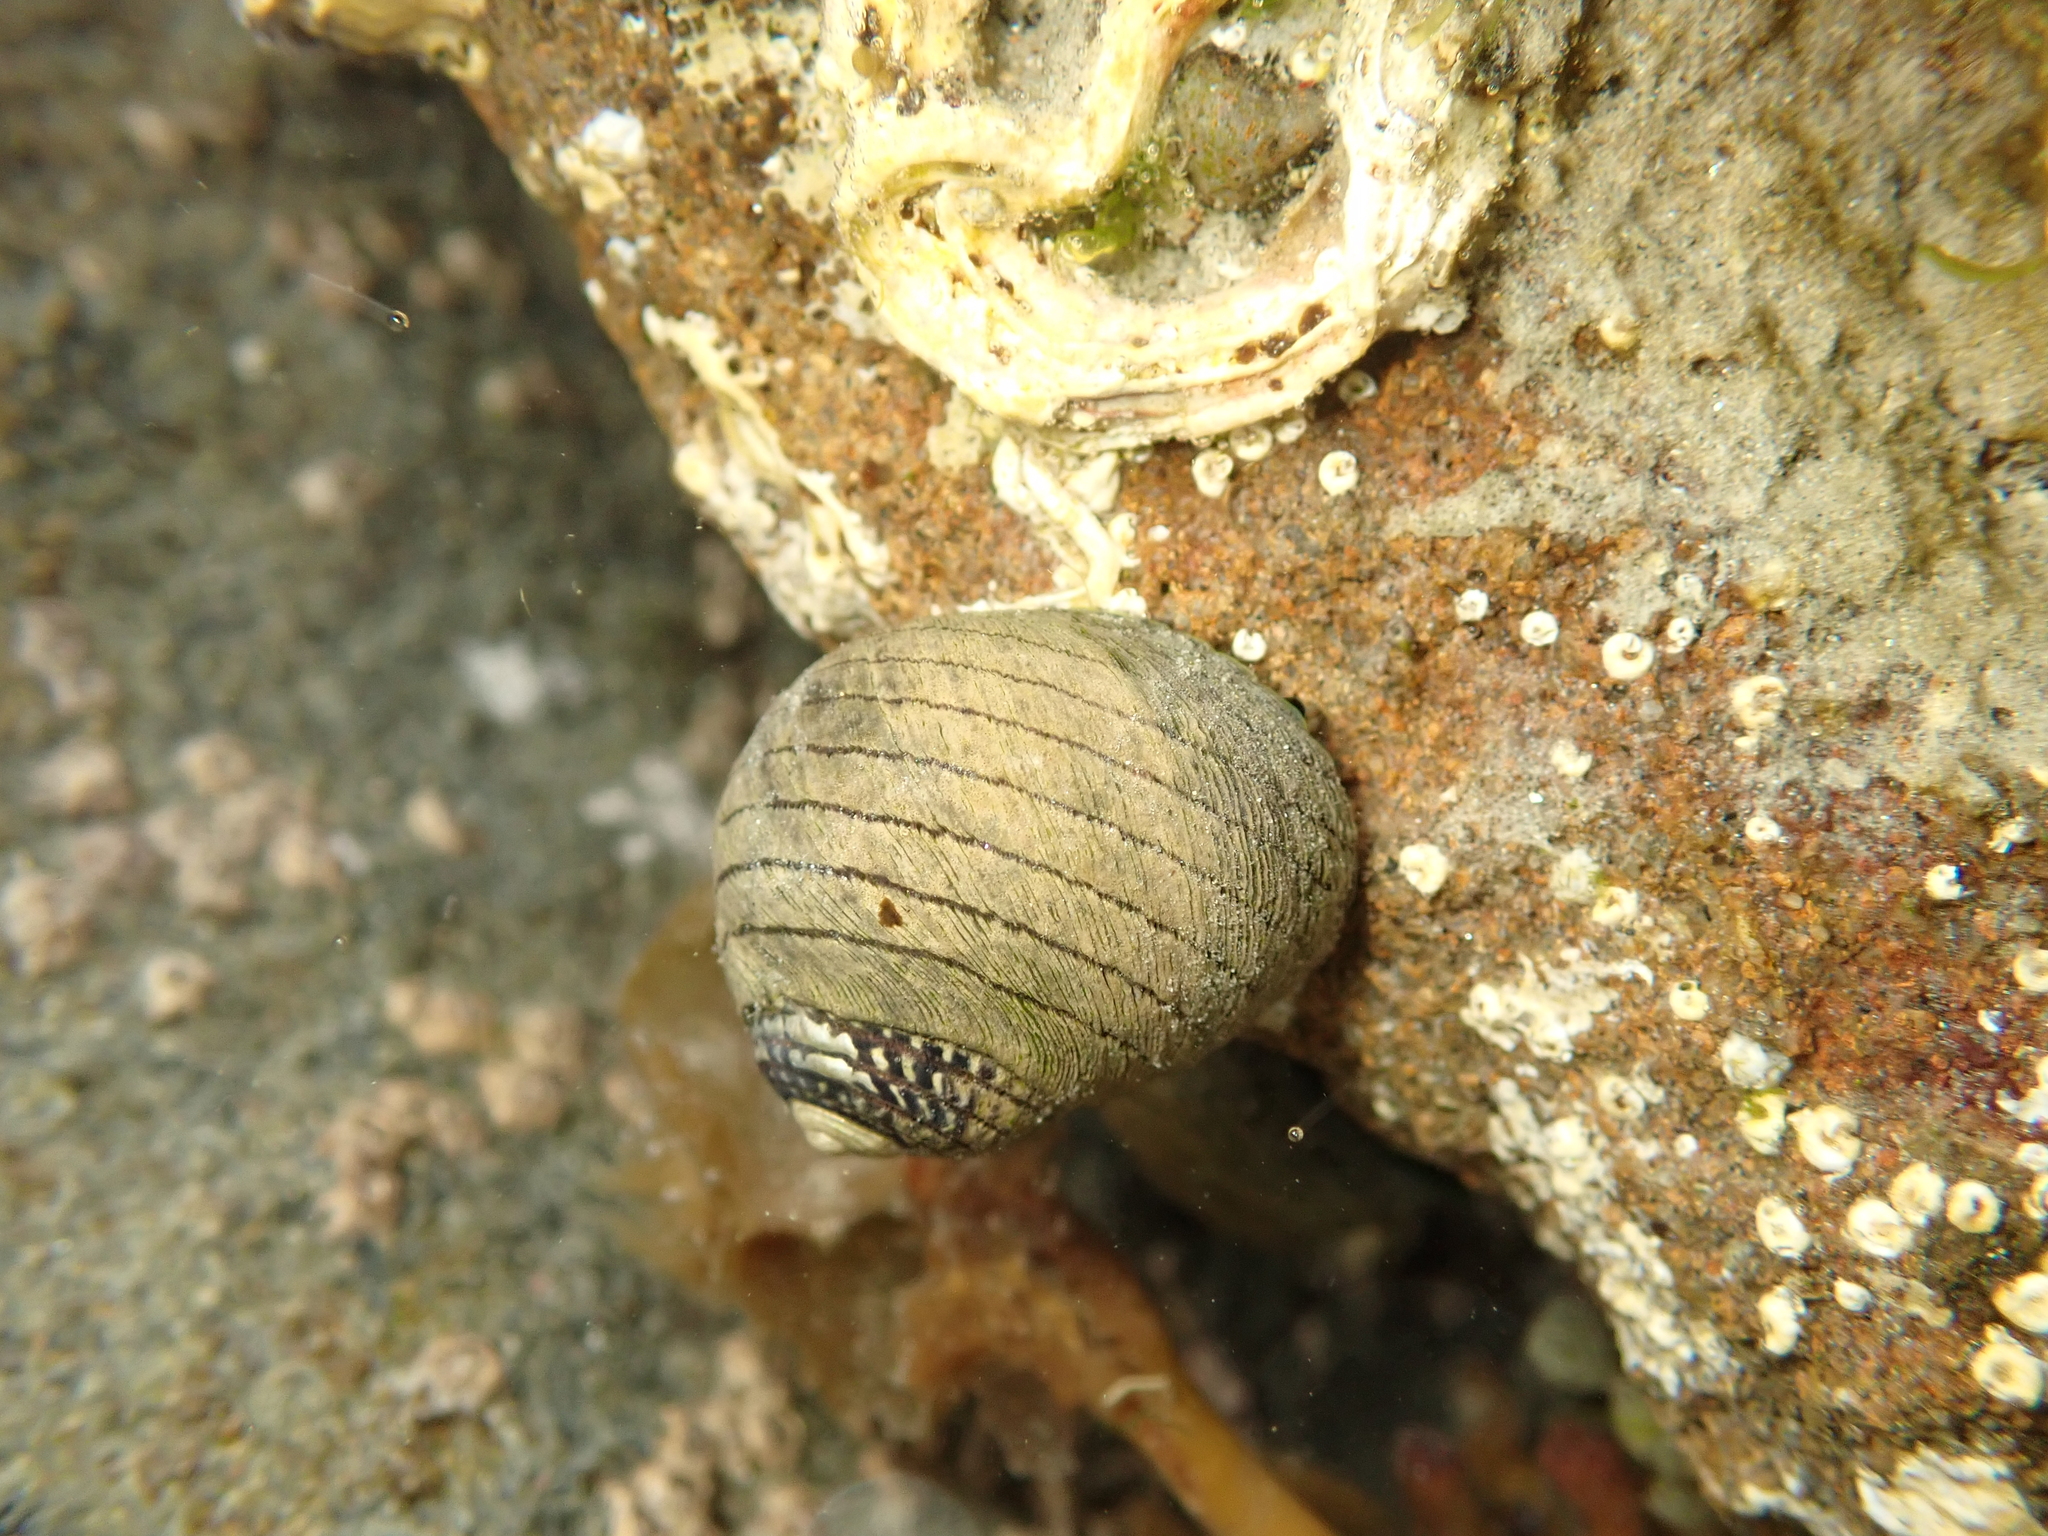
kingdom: Animalia
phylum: Mollusca
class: Gastropoda
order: Trochida
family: Trochidae
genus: Diloma
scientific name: Diloma aethiops
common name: Scorched monodont
